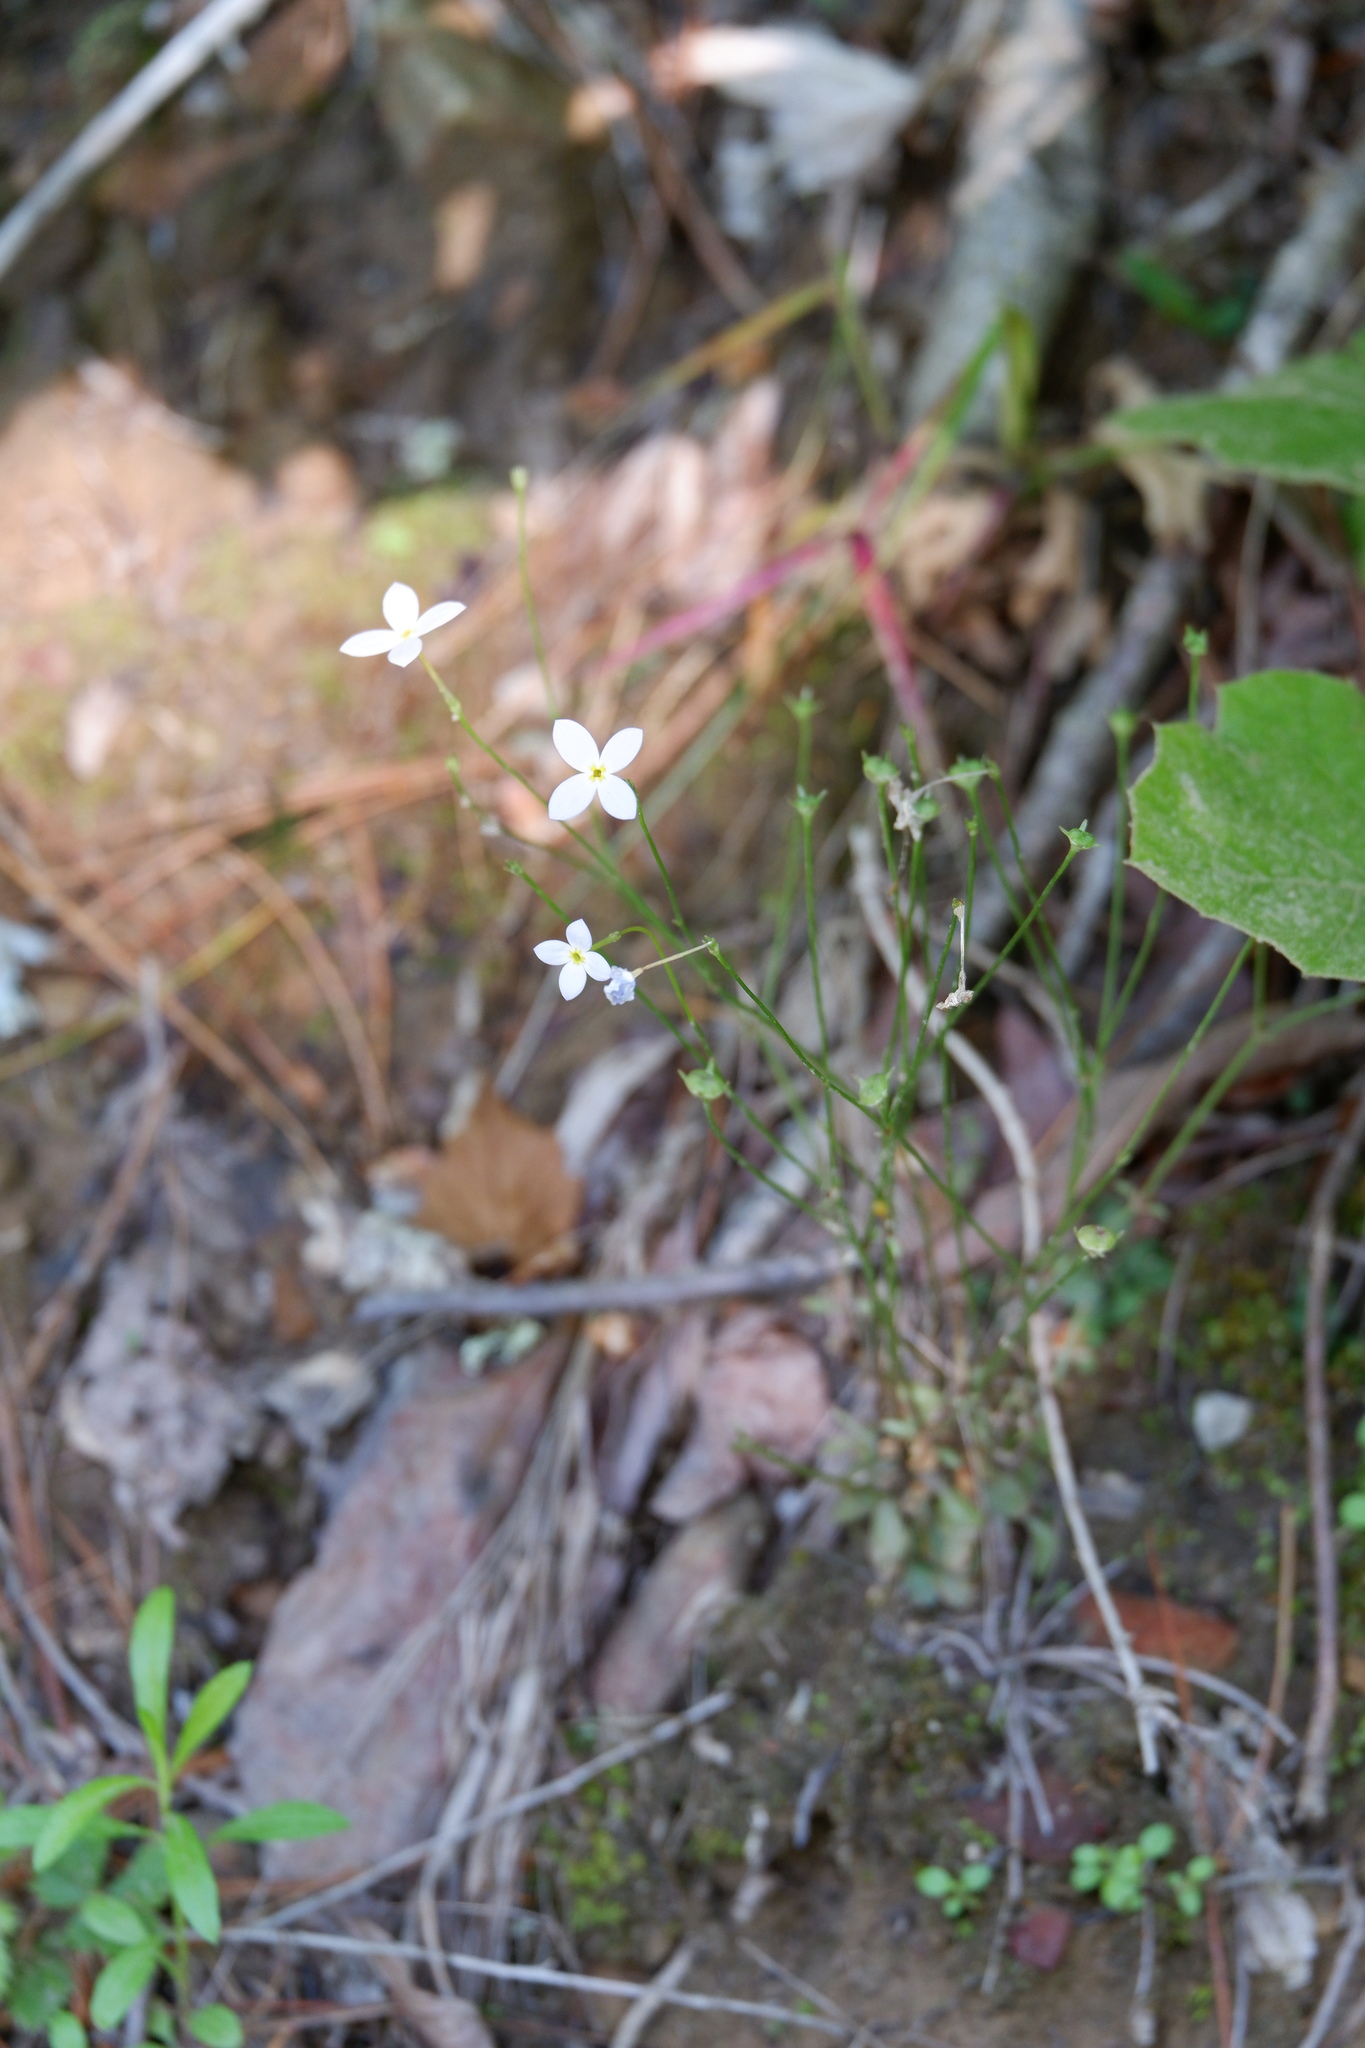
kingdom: Plantae
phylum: Tracheophyta
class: Magnoliopsida
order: Gentianales
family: Rubiaceae
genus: Houstonia
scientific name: Houstonia caerulea
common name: Bluets
